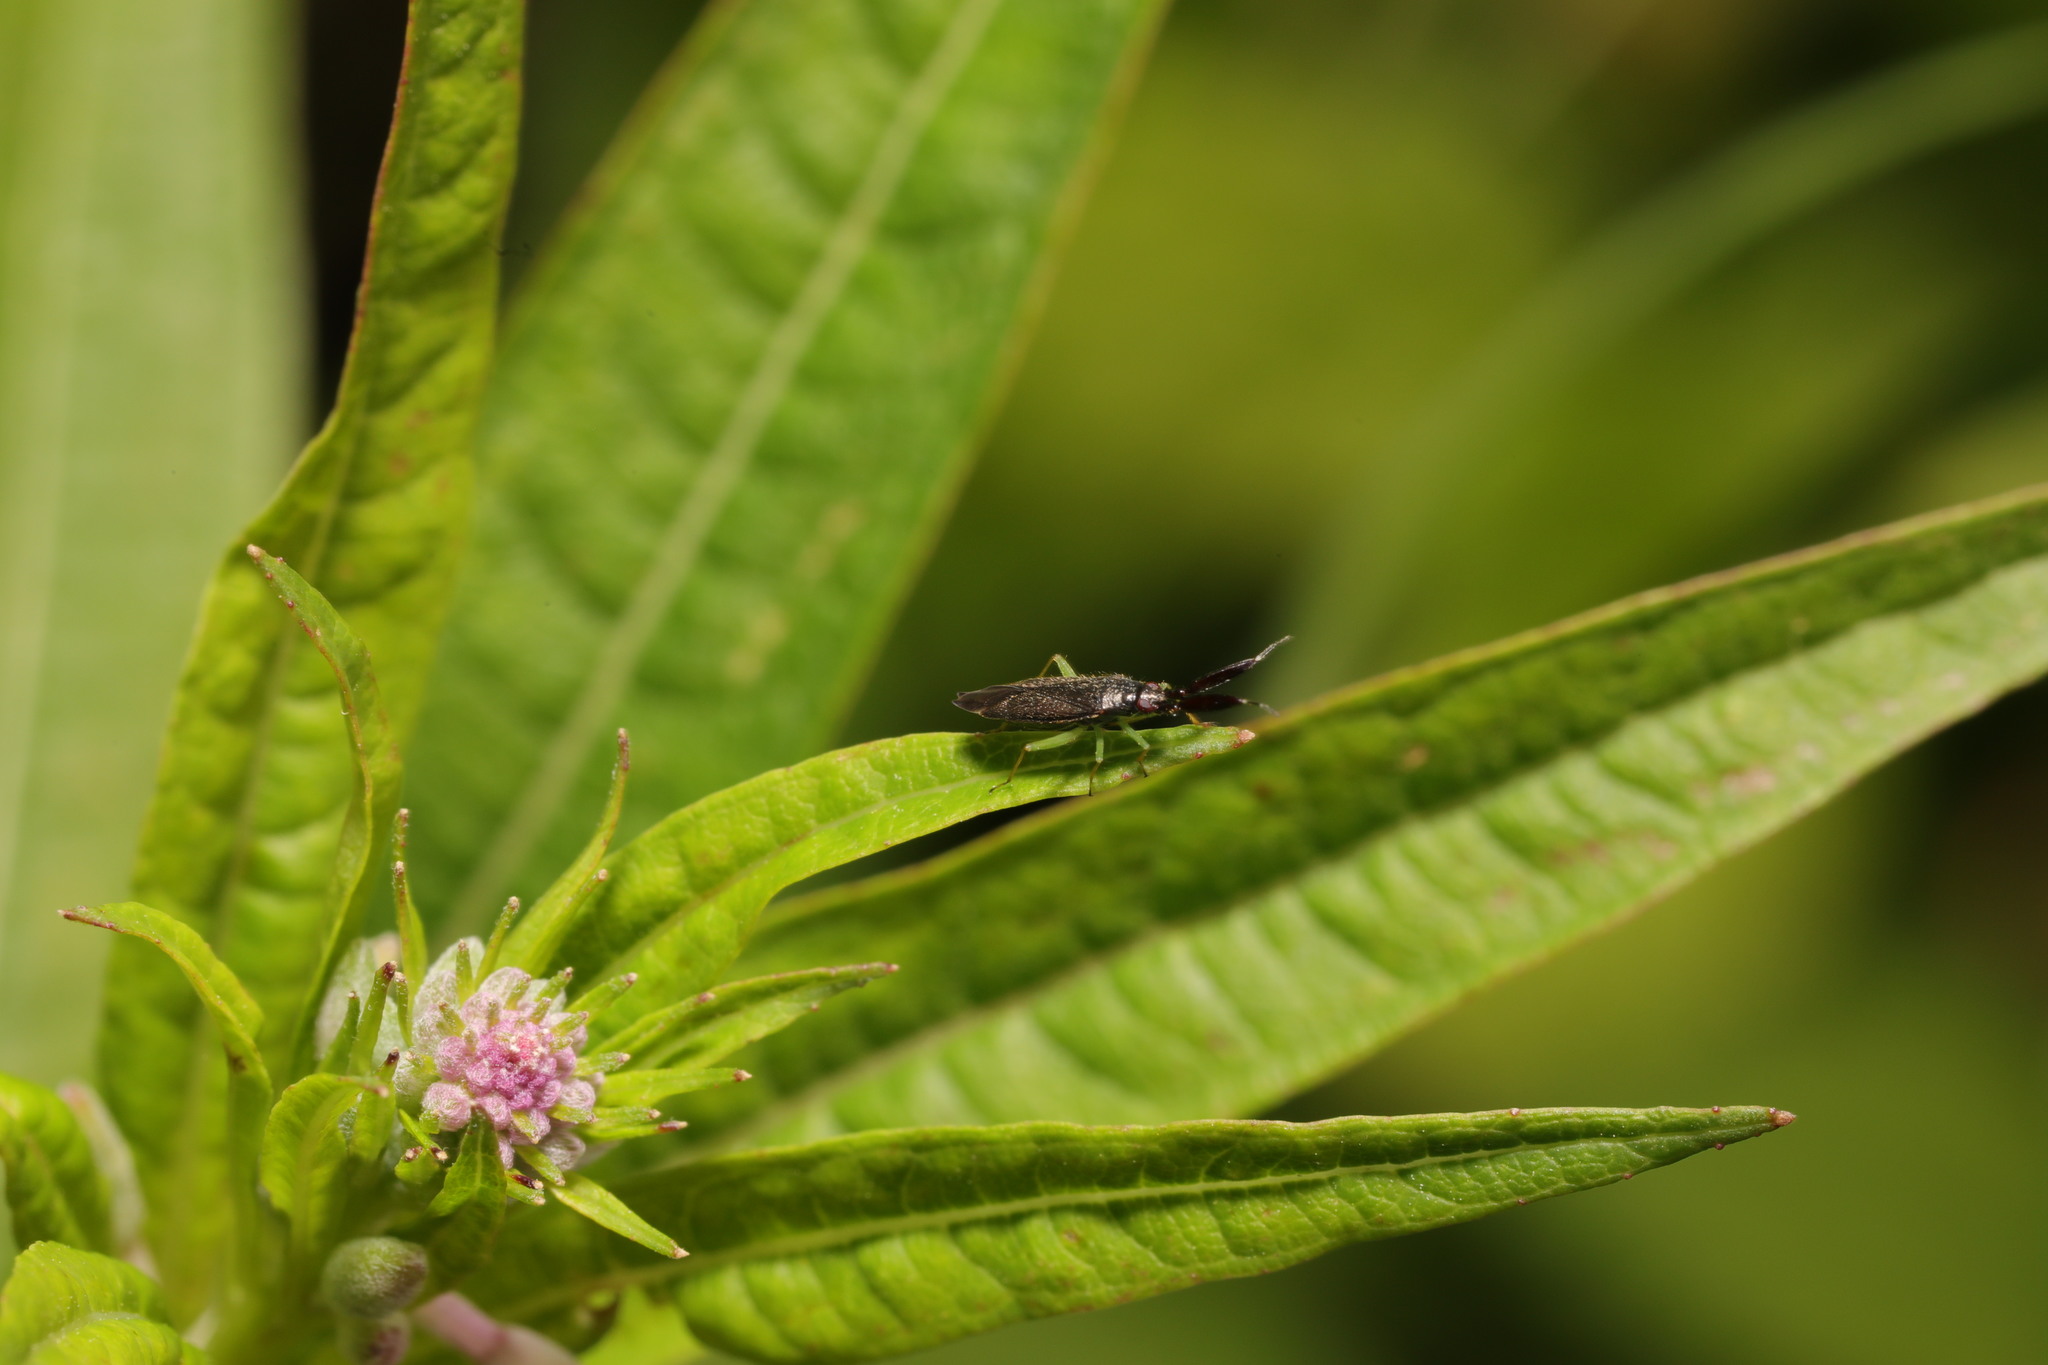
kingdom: Animalia
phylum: Arthropoda
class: Insecta
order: Hemiptera
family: Miridae
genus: Heterotoma
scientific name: Heterotoma planicornis
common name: Plant bug
